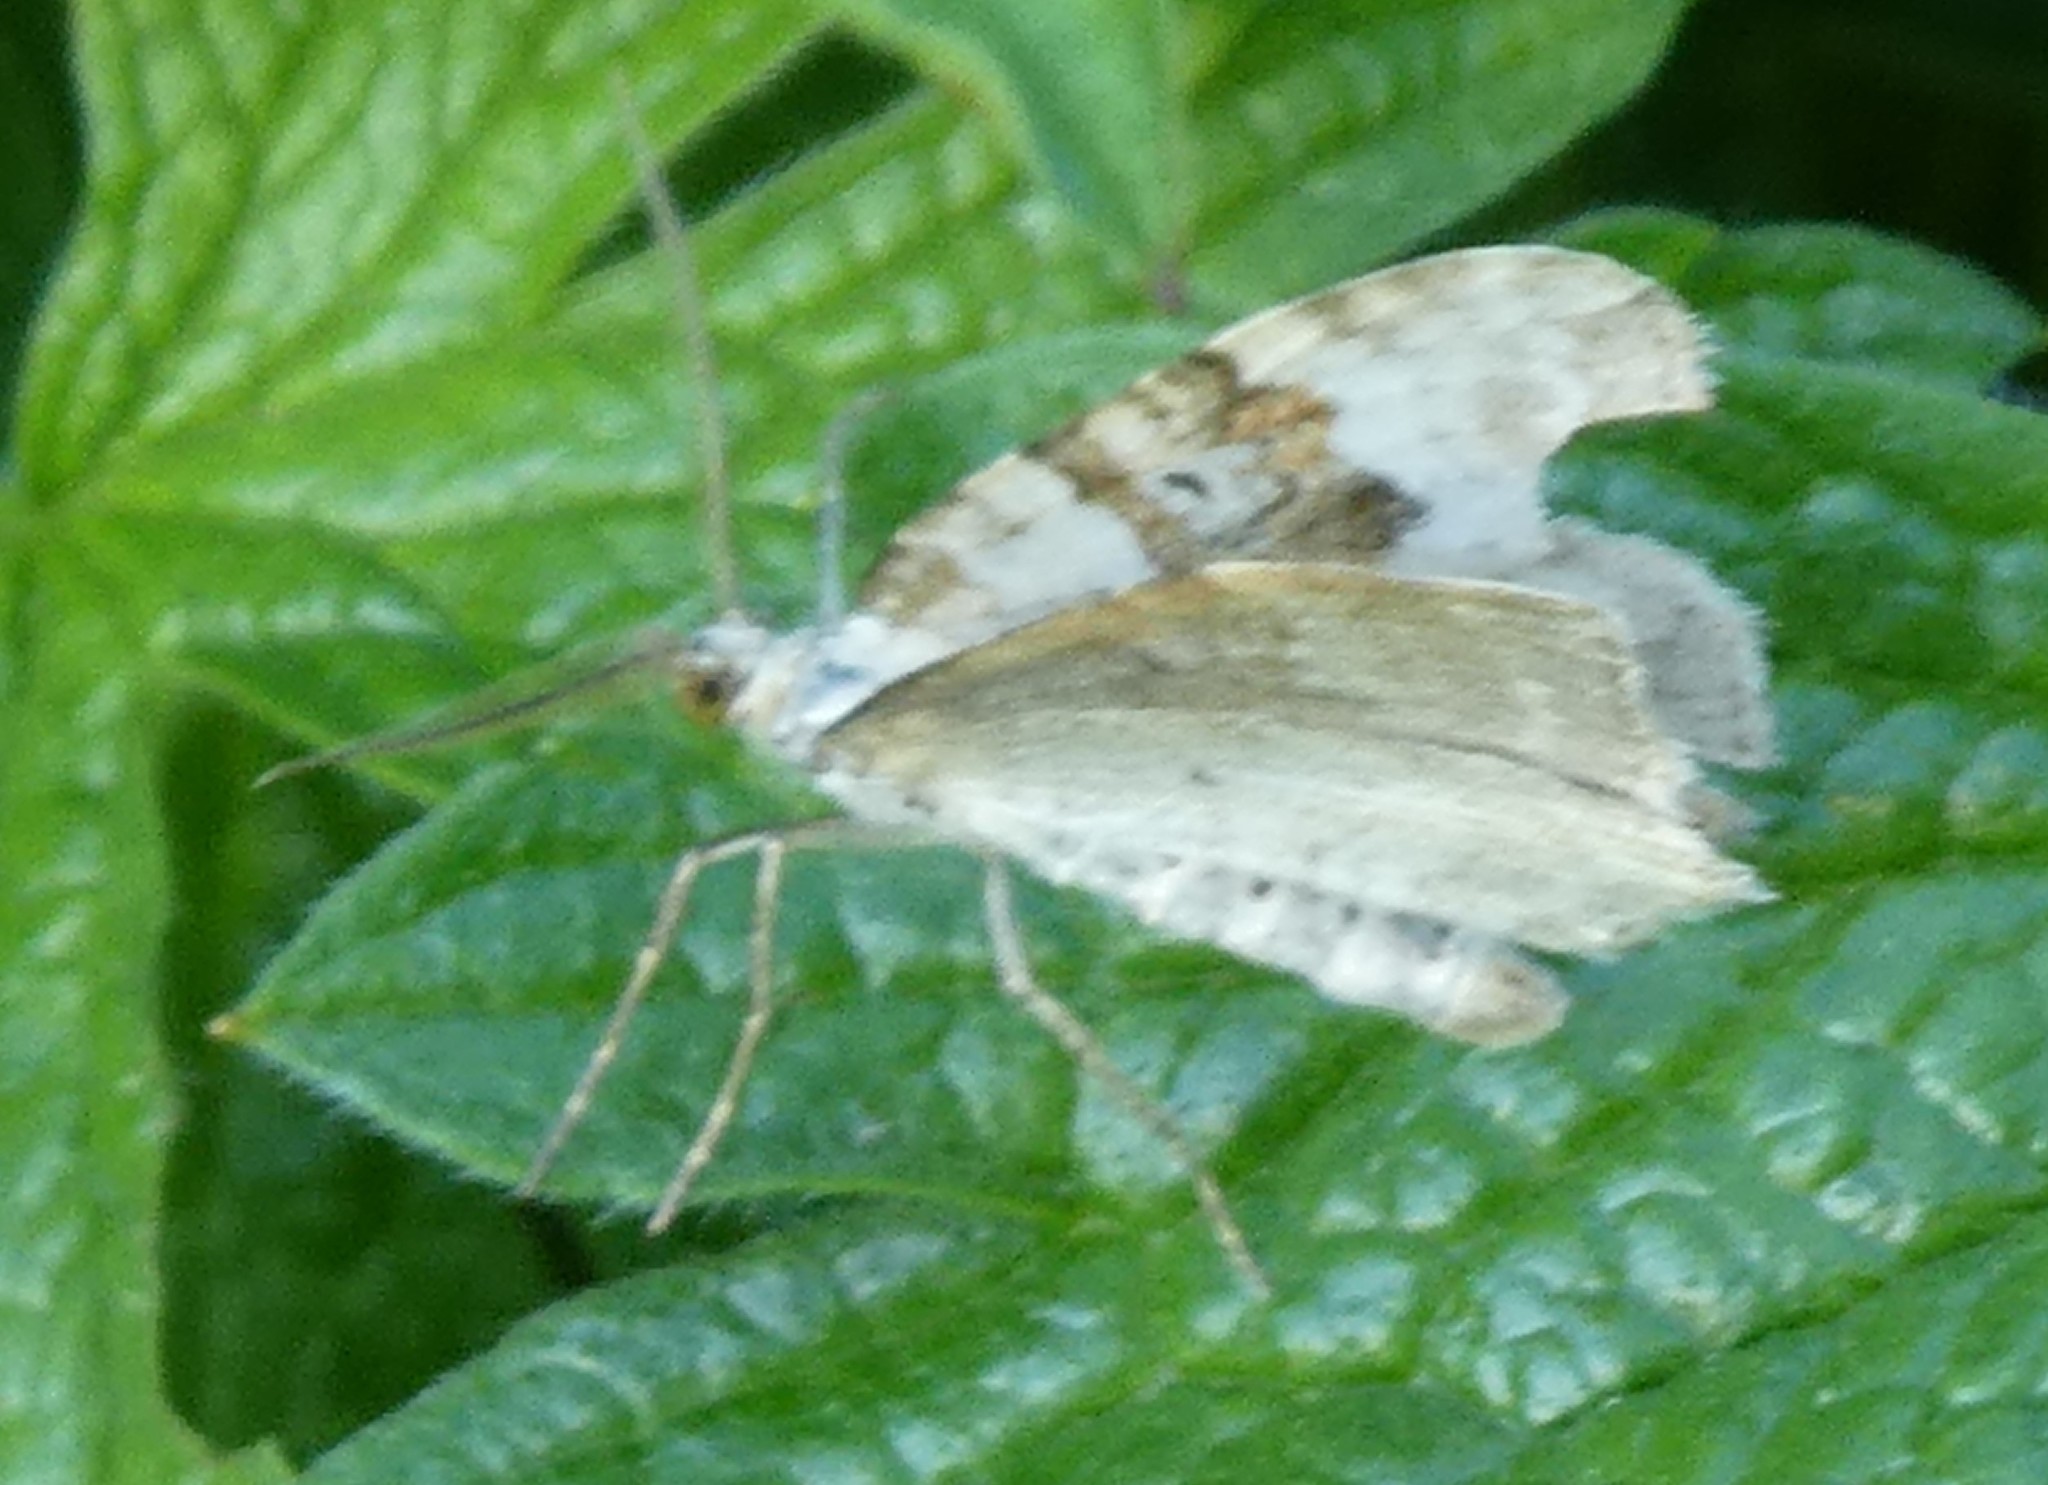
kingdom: Animalia
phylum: Arthropoda
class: Insecta
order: Lepidoptera
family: Geometridae
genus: Xanthorhoe
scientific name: Xanthorhoe montanata
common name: Silver-ground carpet
